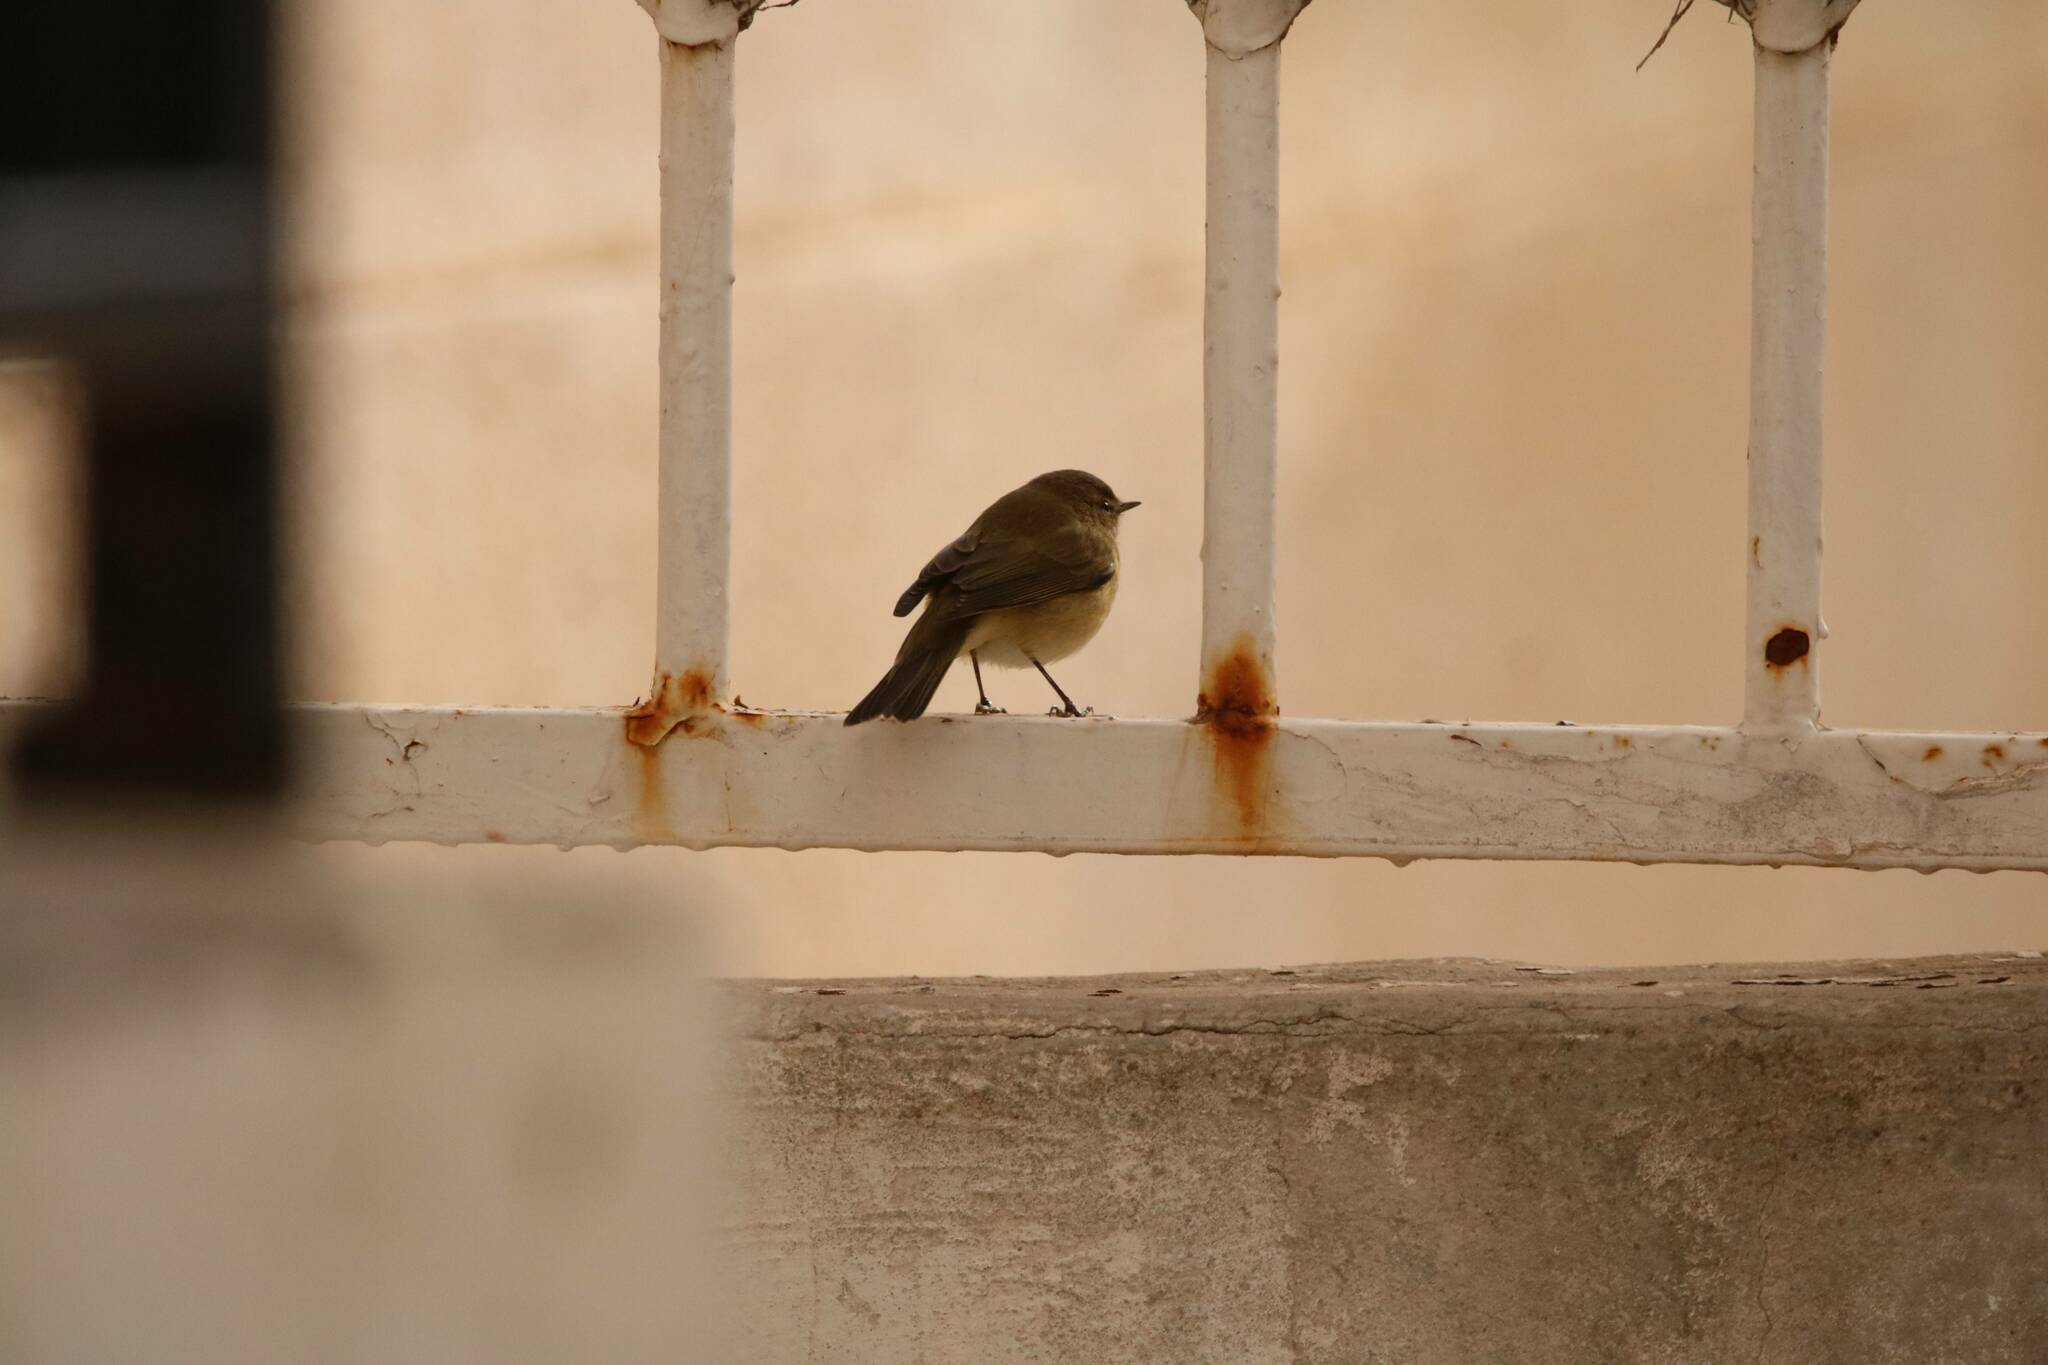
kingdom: Animalia
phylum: Chordata
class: Aves
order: Passeriformes
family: Phylloscopidae
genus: Phylloscopus
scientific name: Phylloscopus collybita
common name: Common chiffchaff
